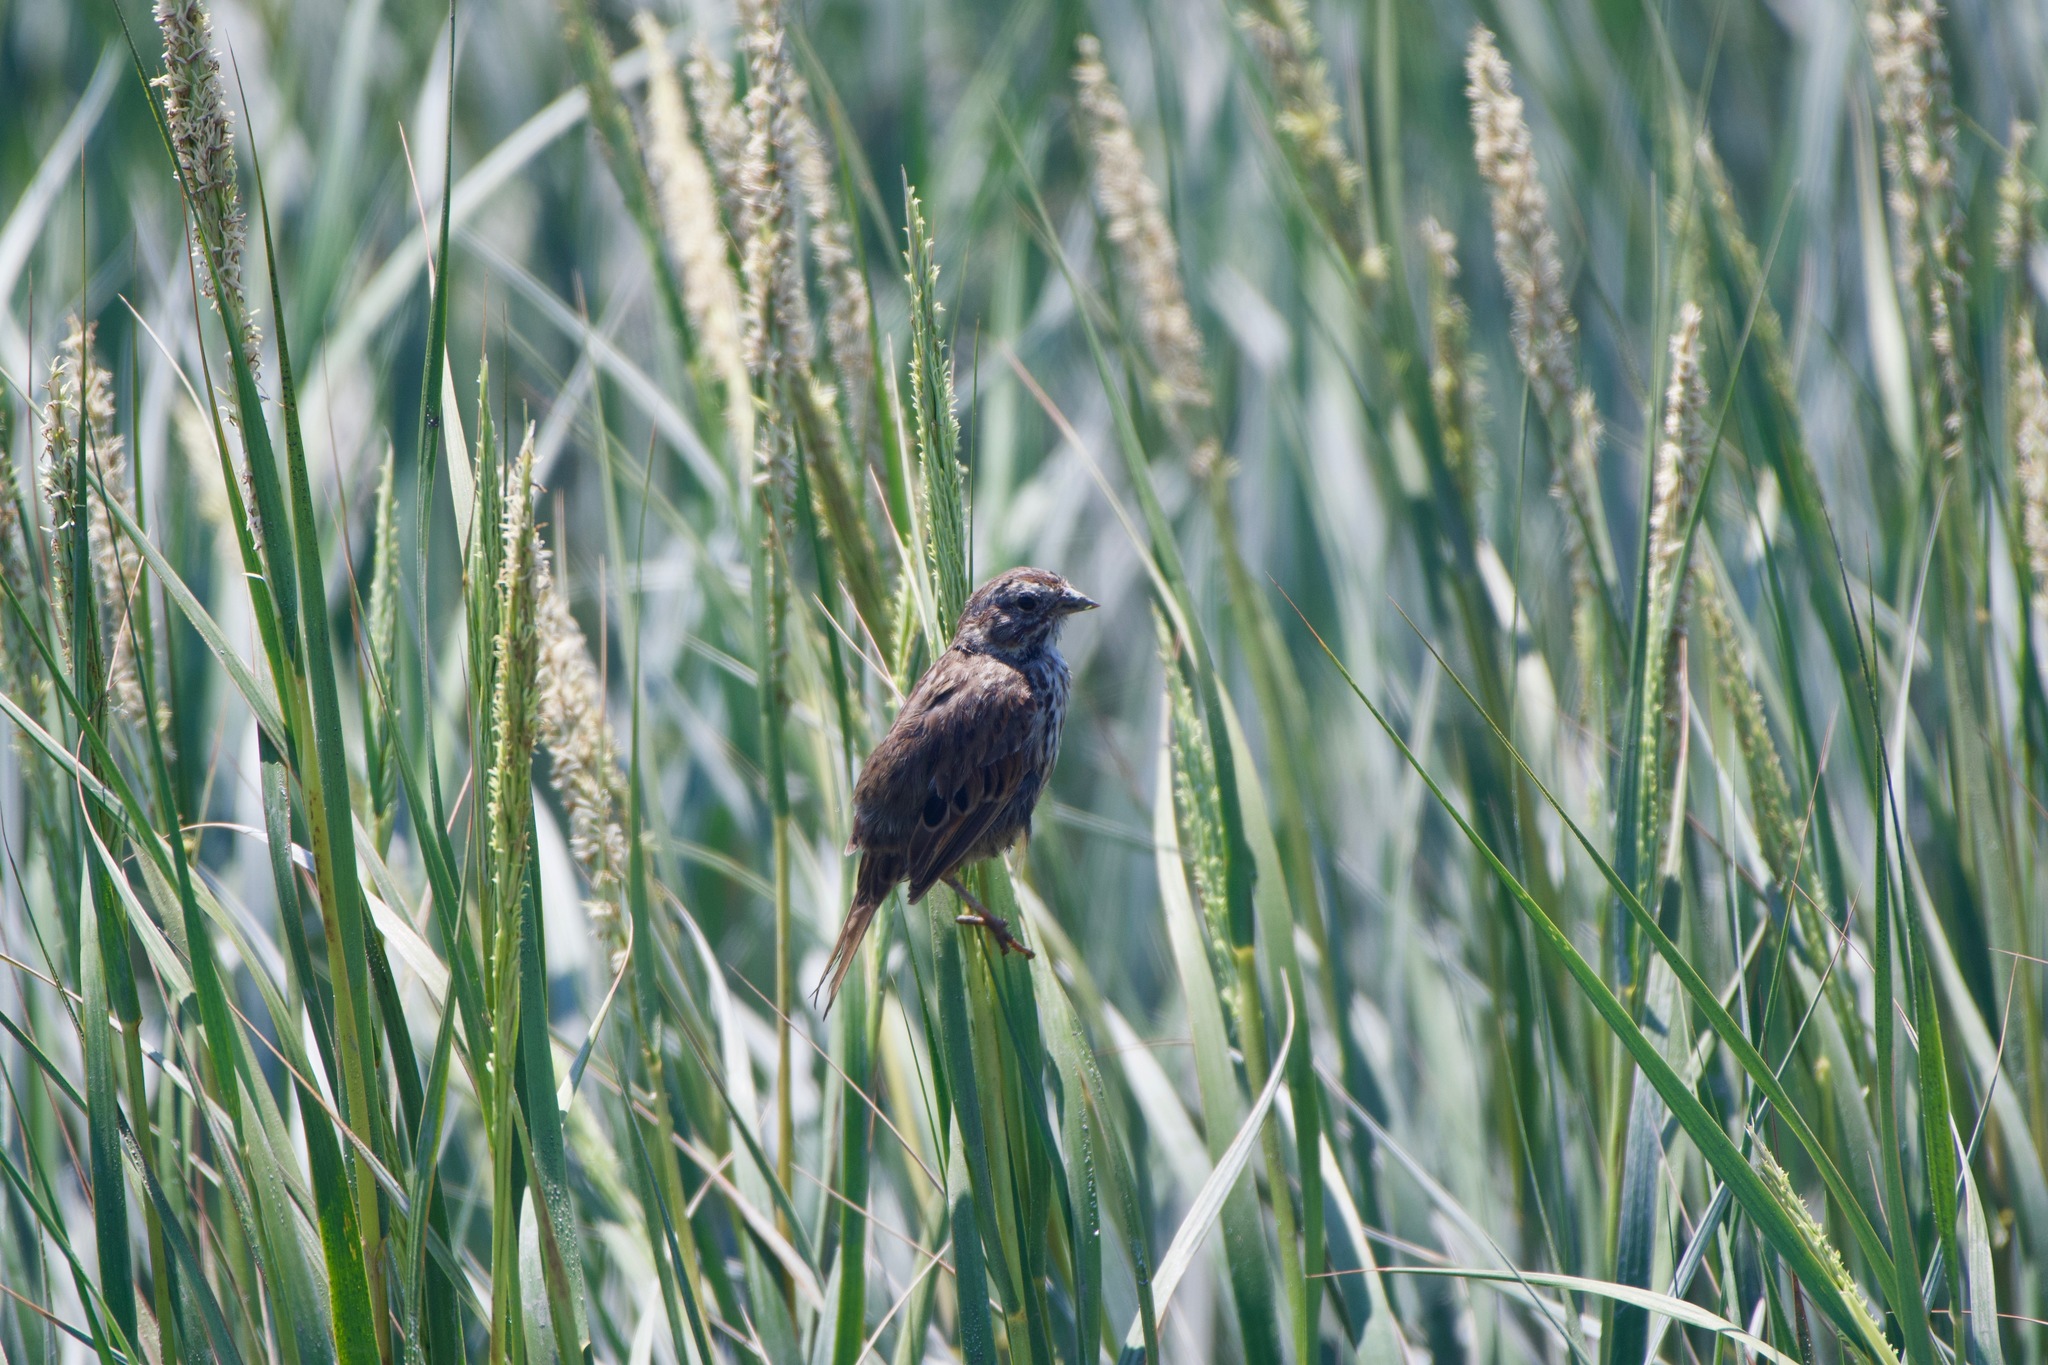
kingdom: Animalia
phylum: Chordata
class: Aves
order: Passeriformes
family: Passerellidae
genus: Melospiza
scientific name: Melospiza melodia
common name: Song sparrow
